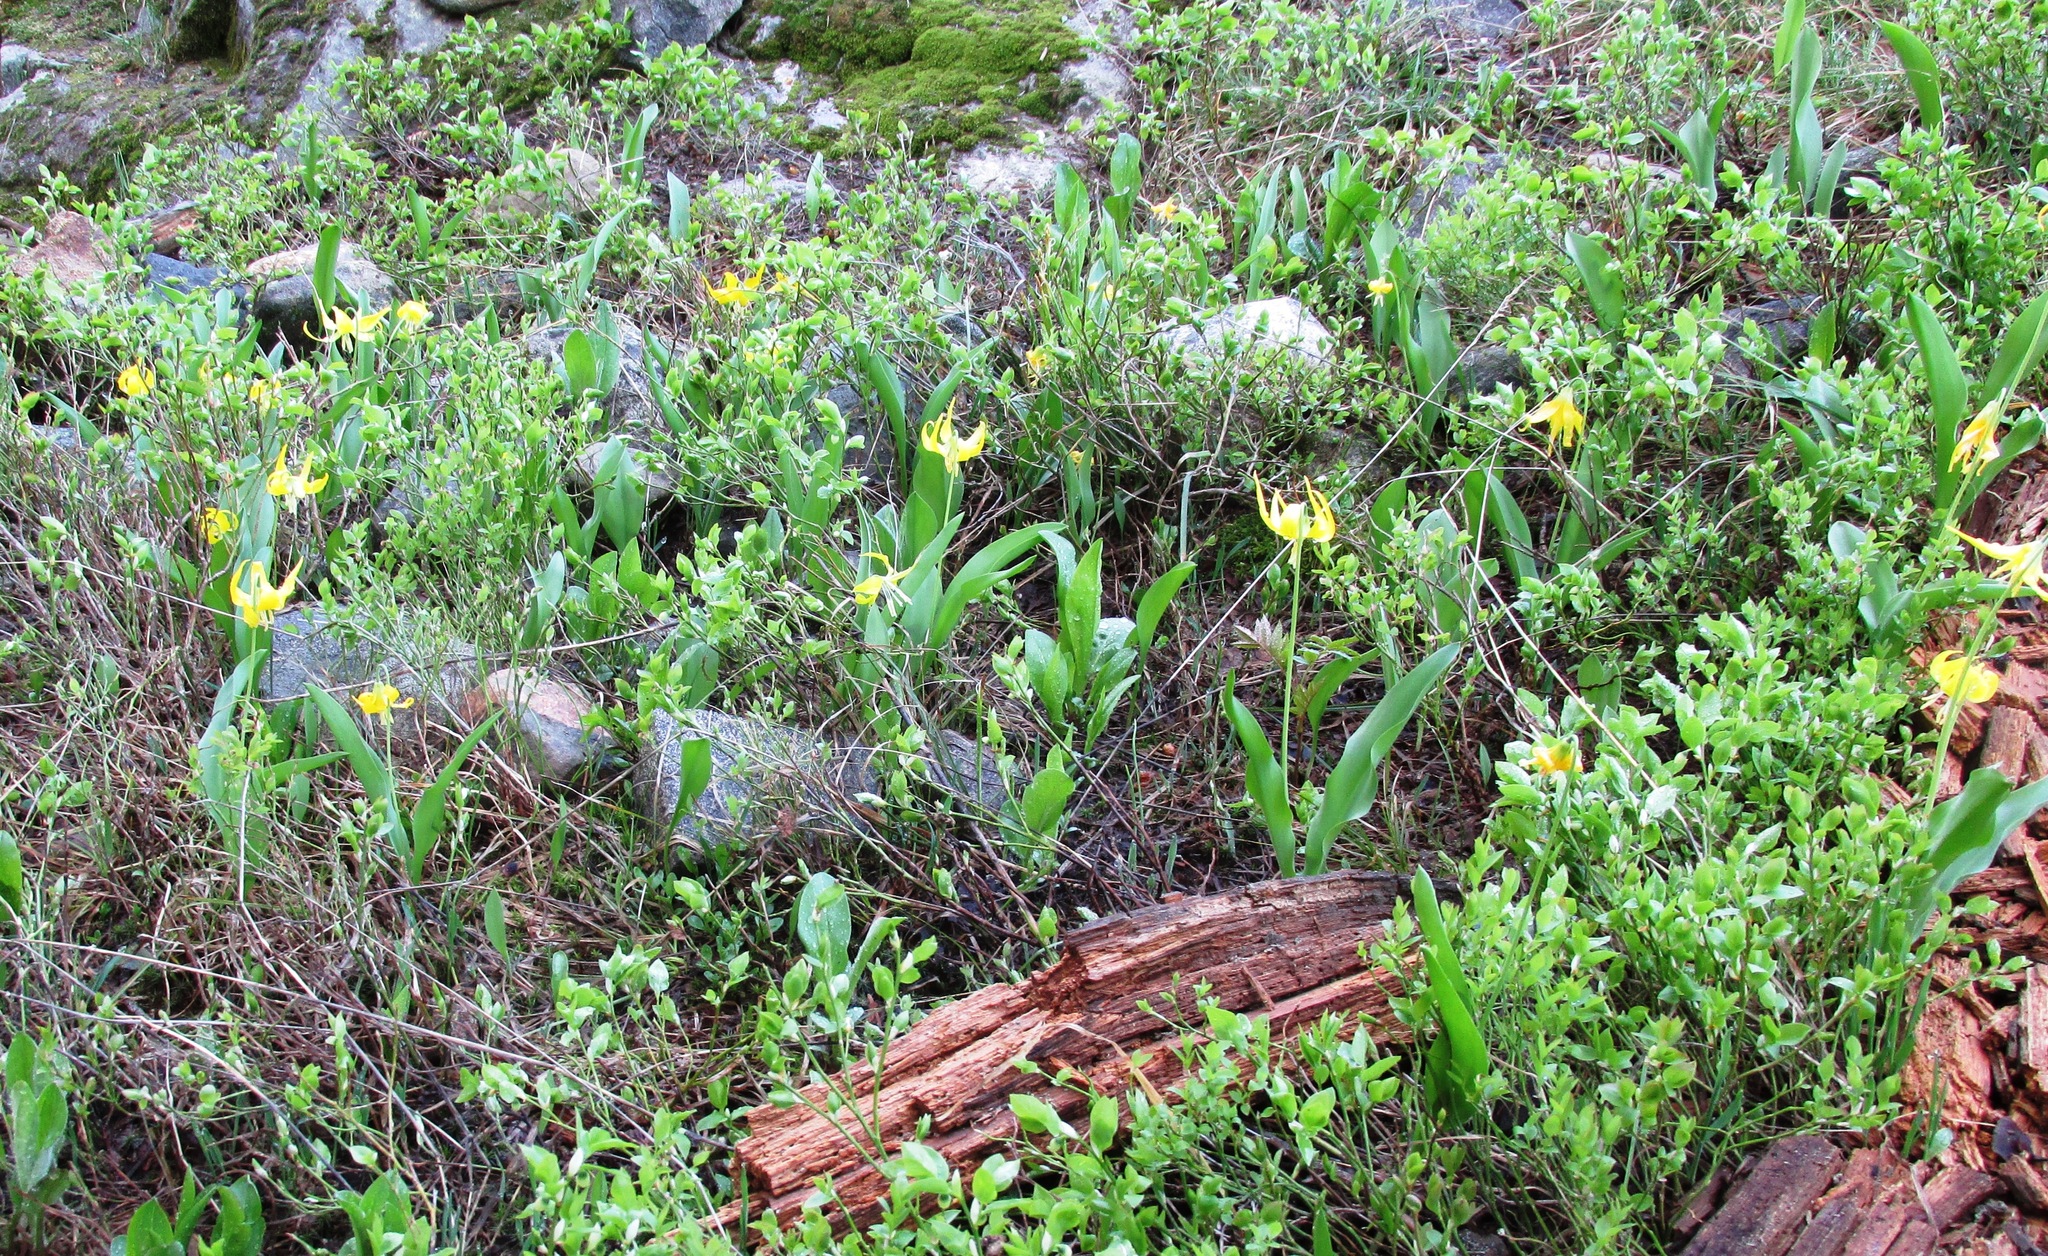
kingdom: Plantae
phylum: Tracheophyta
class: Liliopsida
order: Liliales
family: Liliaceae
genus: Erythronium
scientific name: Erythronium grandiflorum
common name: Avalanche-lily
